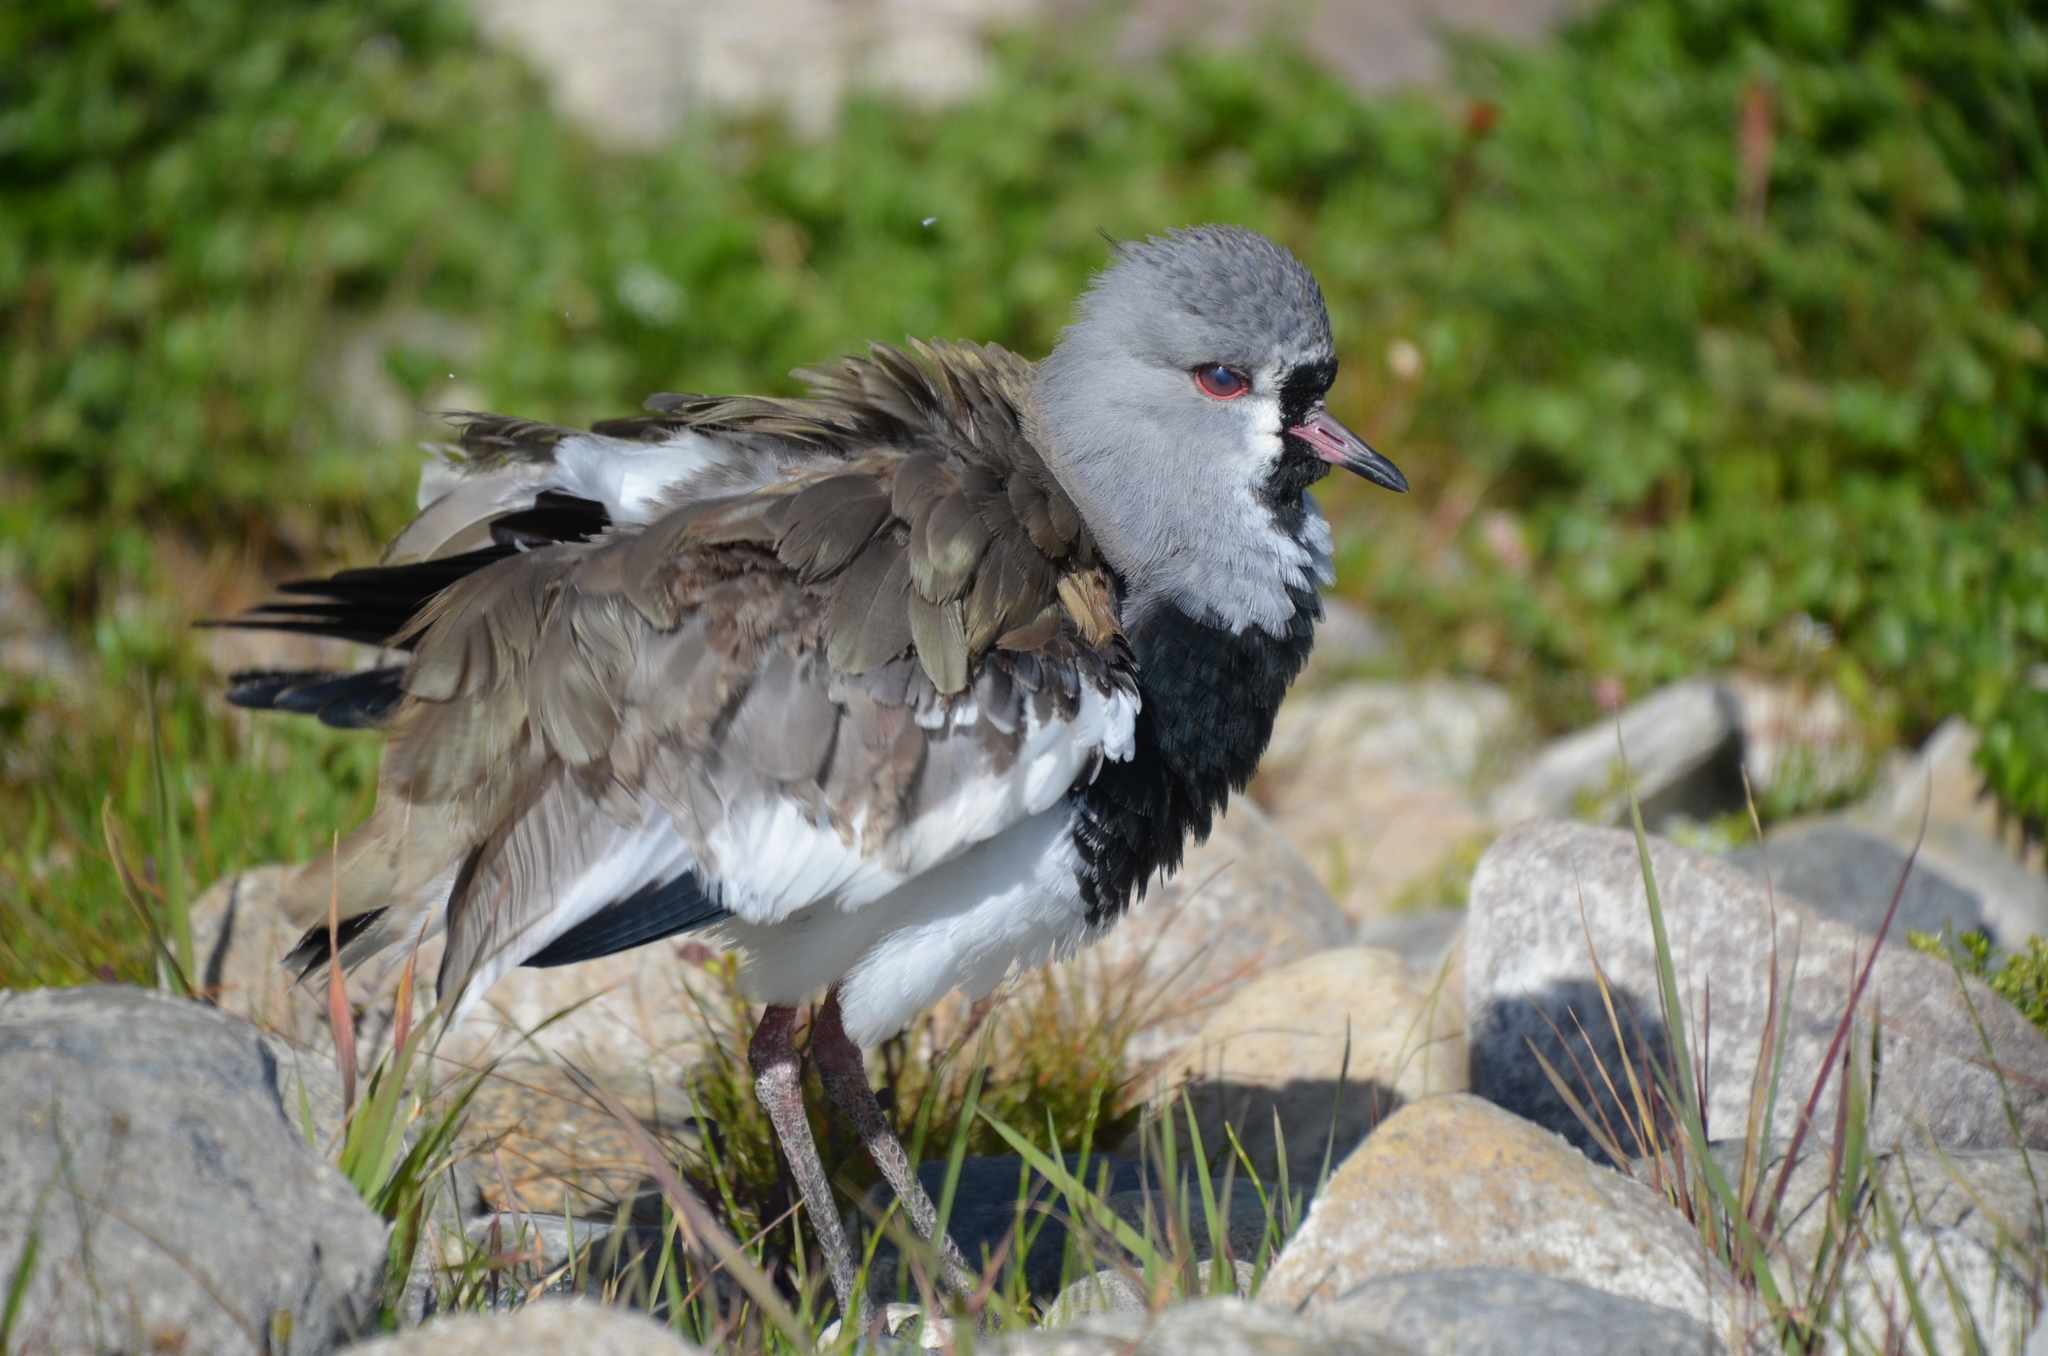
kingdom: Animalia
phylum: Chordata
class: Aves
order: Charadriiformes
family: Charadriidae
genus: Vanellus
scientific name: Vanellus chilensis
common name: Southern lapwing
